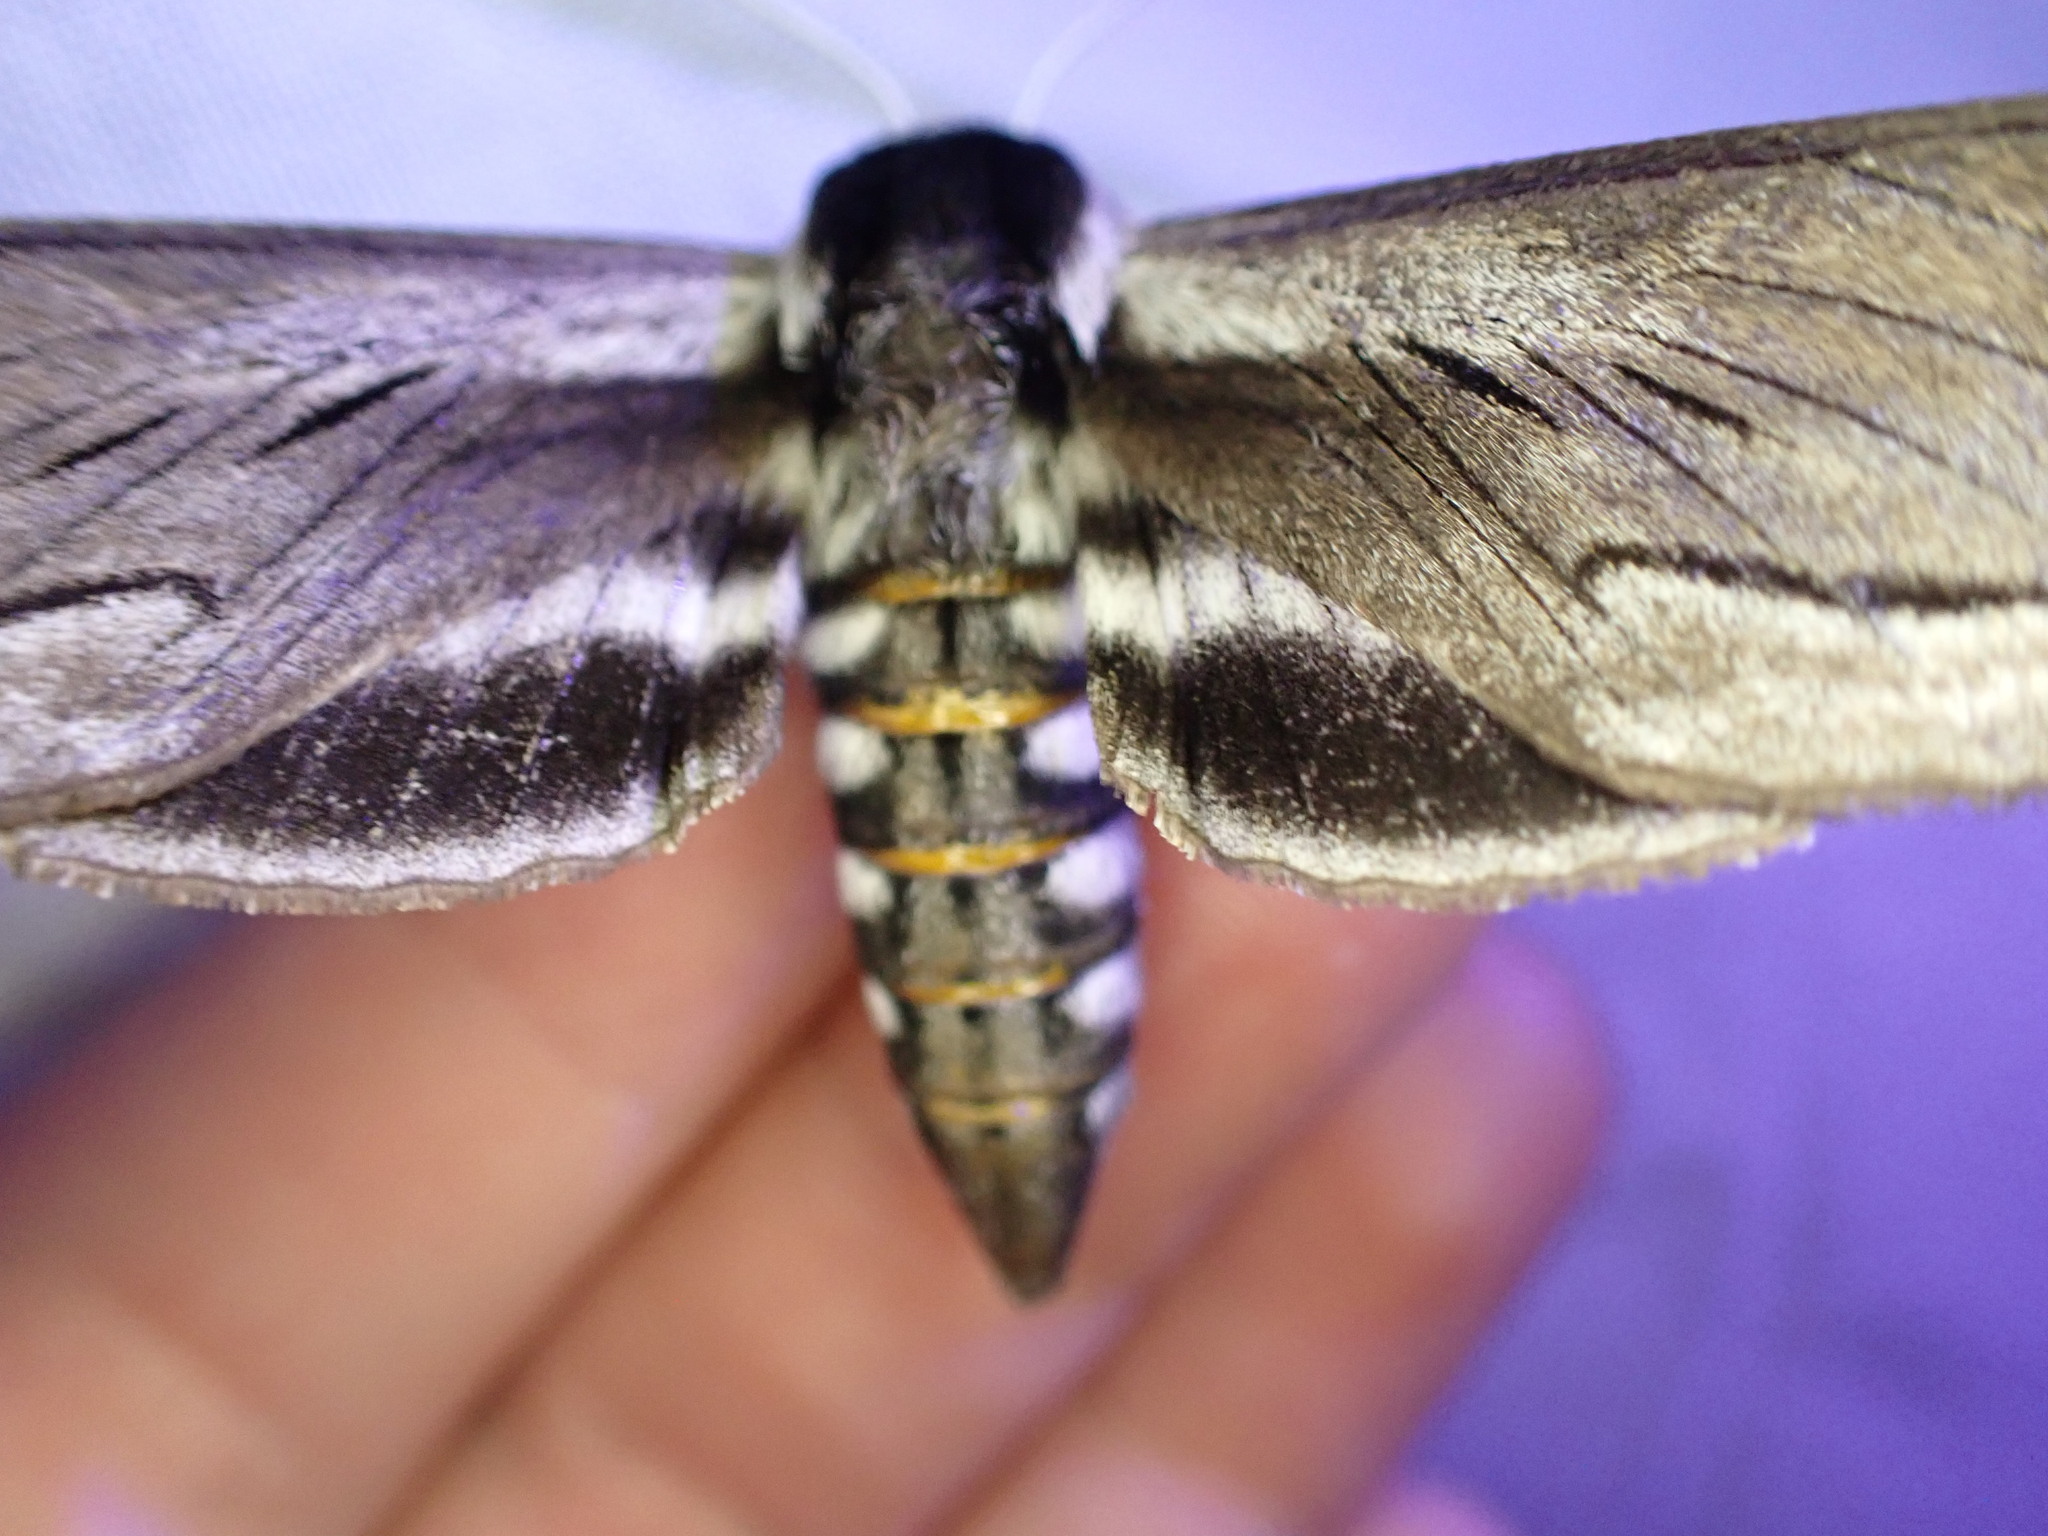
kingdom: Animalia
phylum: Arthropoda
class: Insecta
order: Lepidoptera
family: Sphingidae
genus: Sphinx
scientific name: Sphinx vashti
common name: Snowberry sphinx
